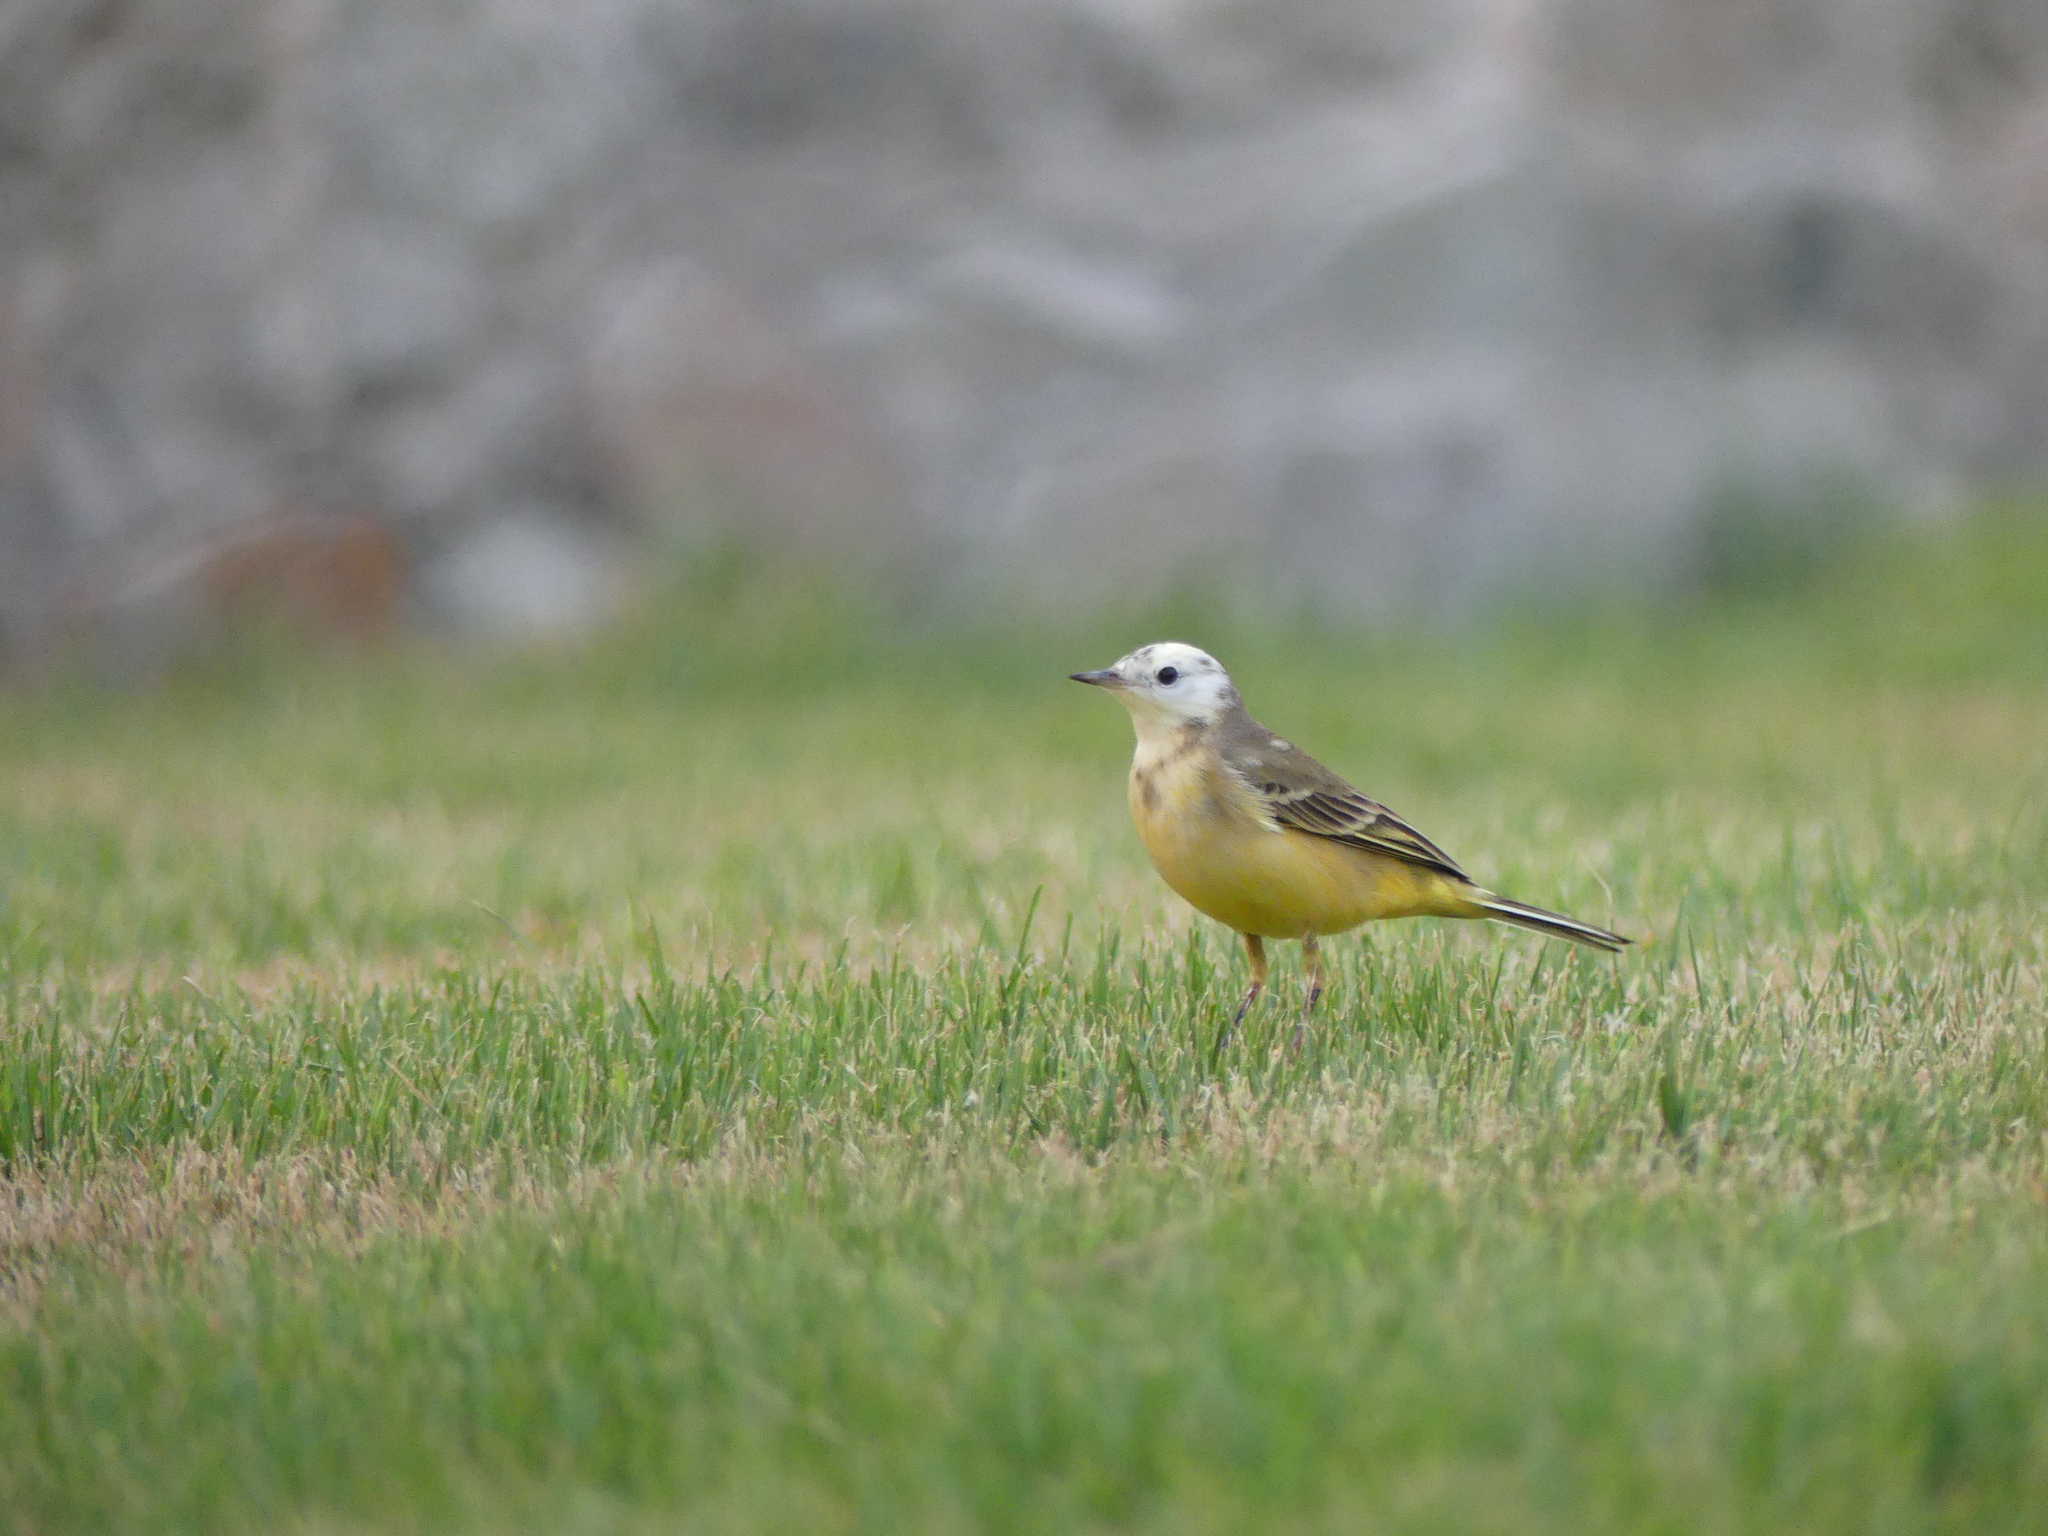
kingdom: Animalia
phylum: Chordata
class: Aves
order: Passeriformes
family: Motacillidae
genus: Motacilla
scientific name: Motacilla flava
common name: Western yellow wagtail
